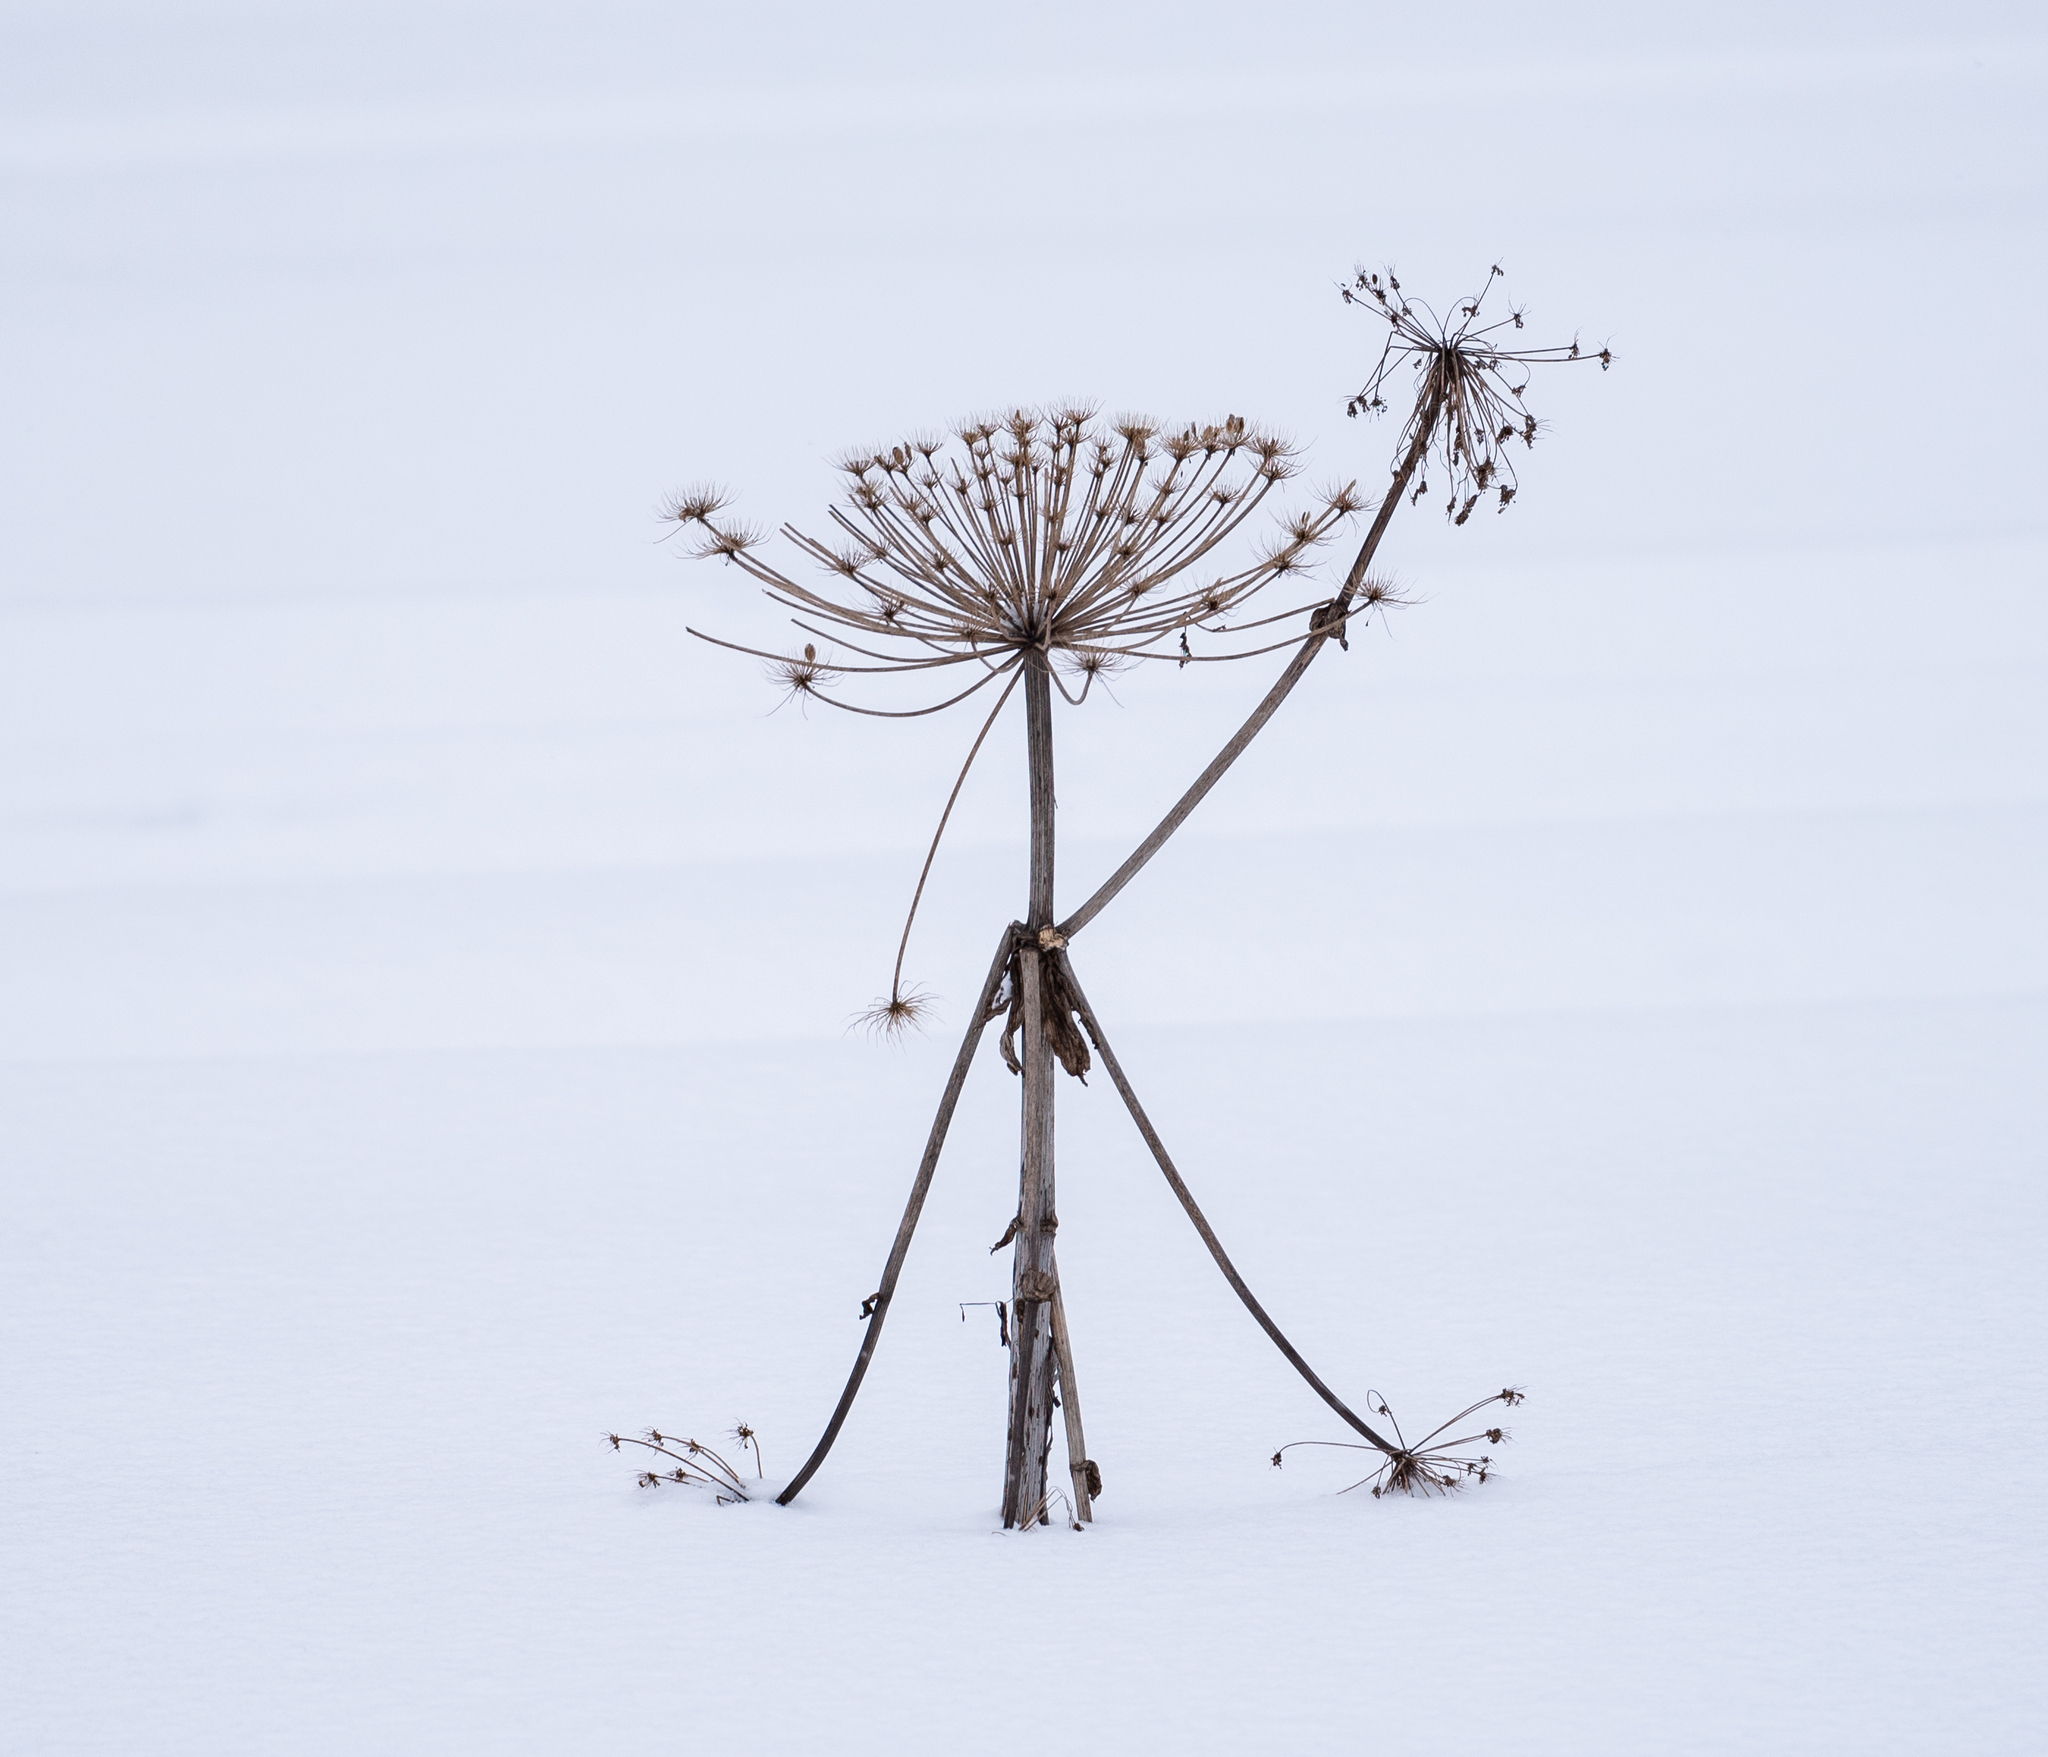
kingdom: Plantae
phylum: Tracheophyta
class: Magnoliopsida
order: Apiales
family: Apiaceae
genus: Heracleum
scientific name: Heracleum sosnowskyi
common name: Sosnowsky's hogweed
